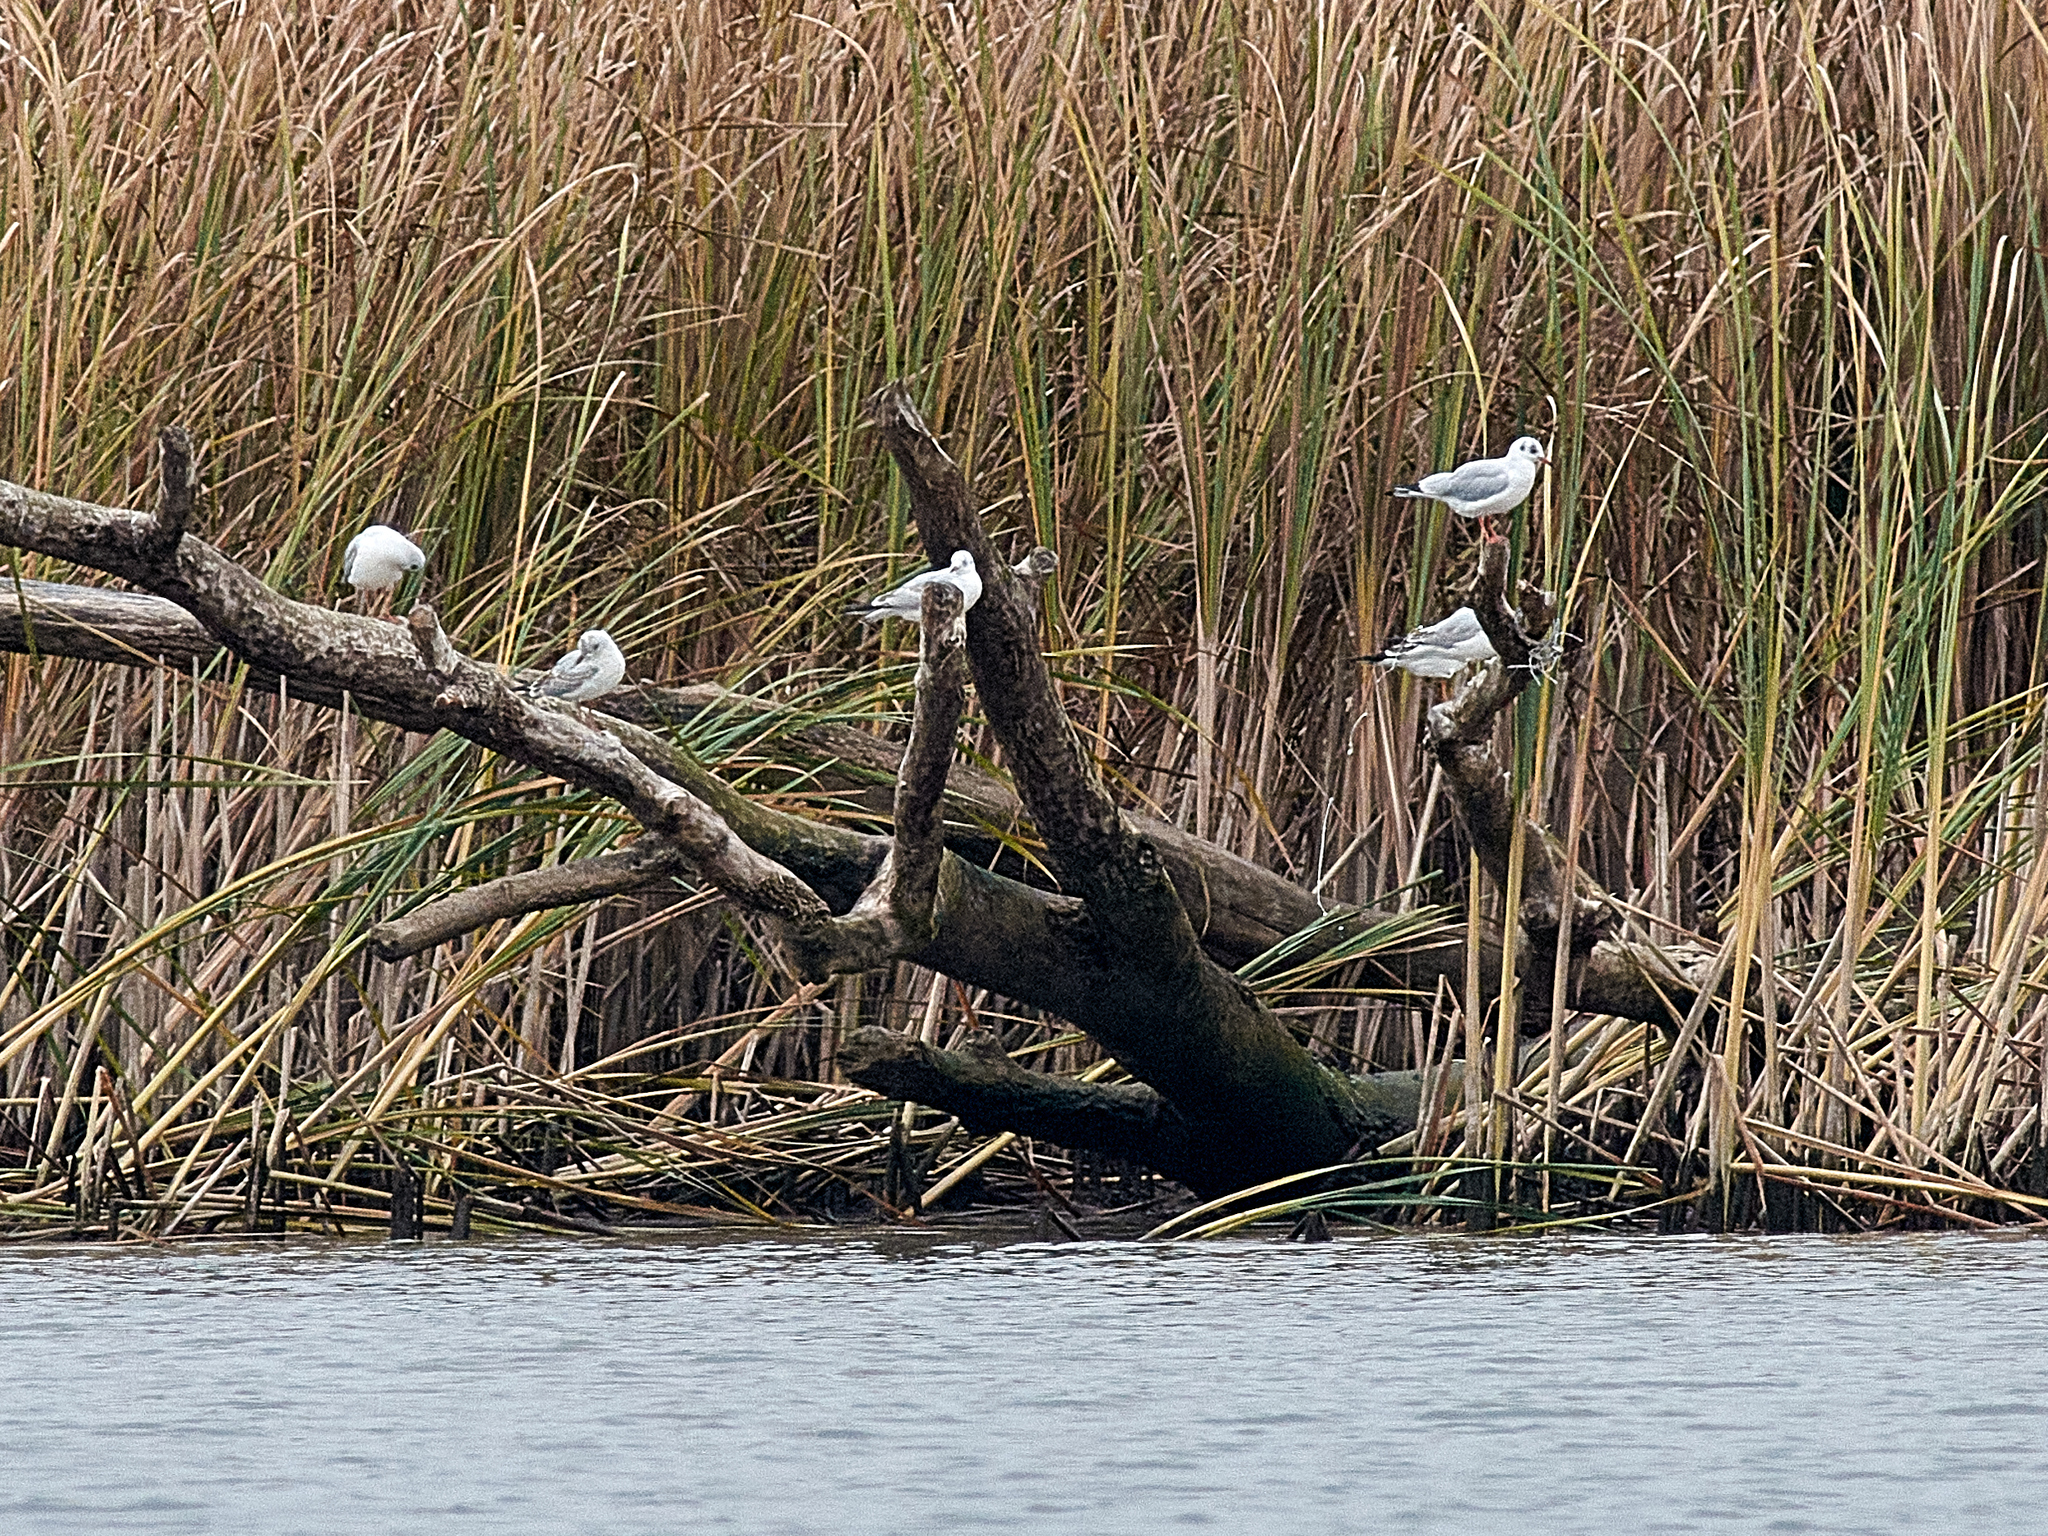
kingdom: Animalia
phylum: Chordata
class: Aves
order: Charadriiformes
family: Laridae
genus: Chroicocephalus
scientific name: Chroicocephalus ridibundus
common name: Black-headed gull
